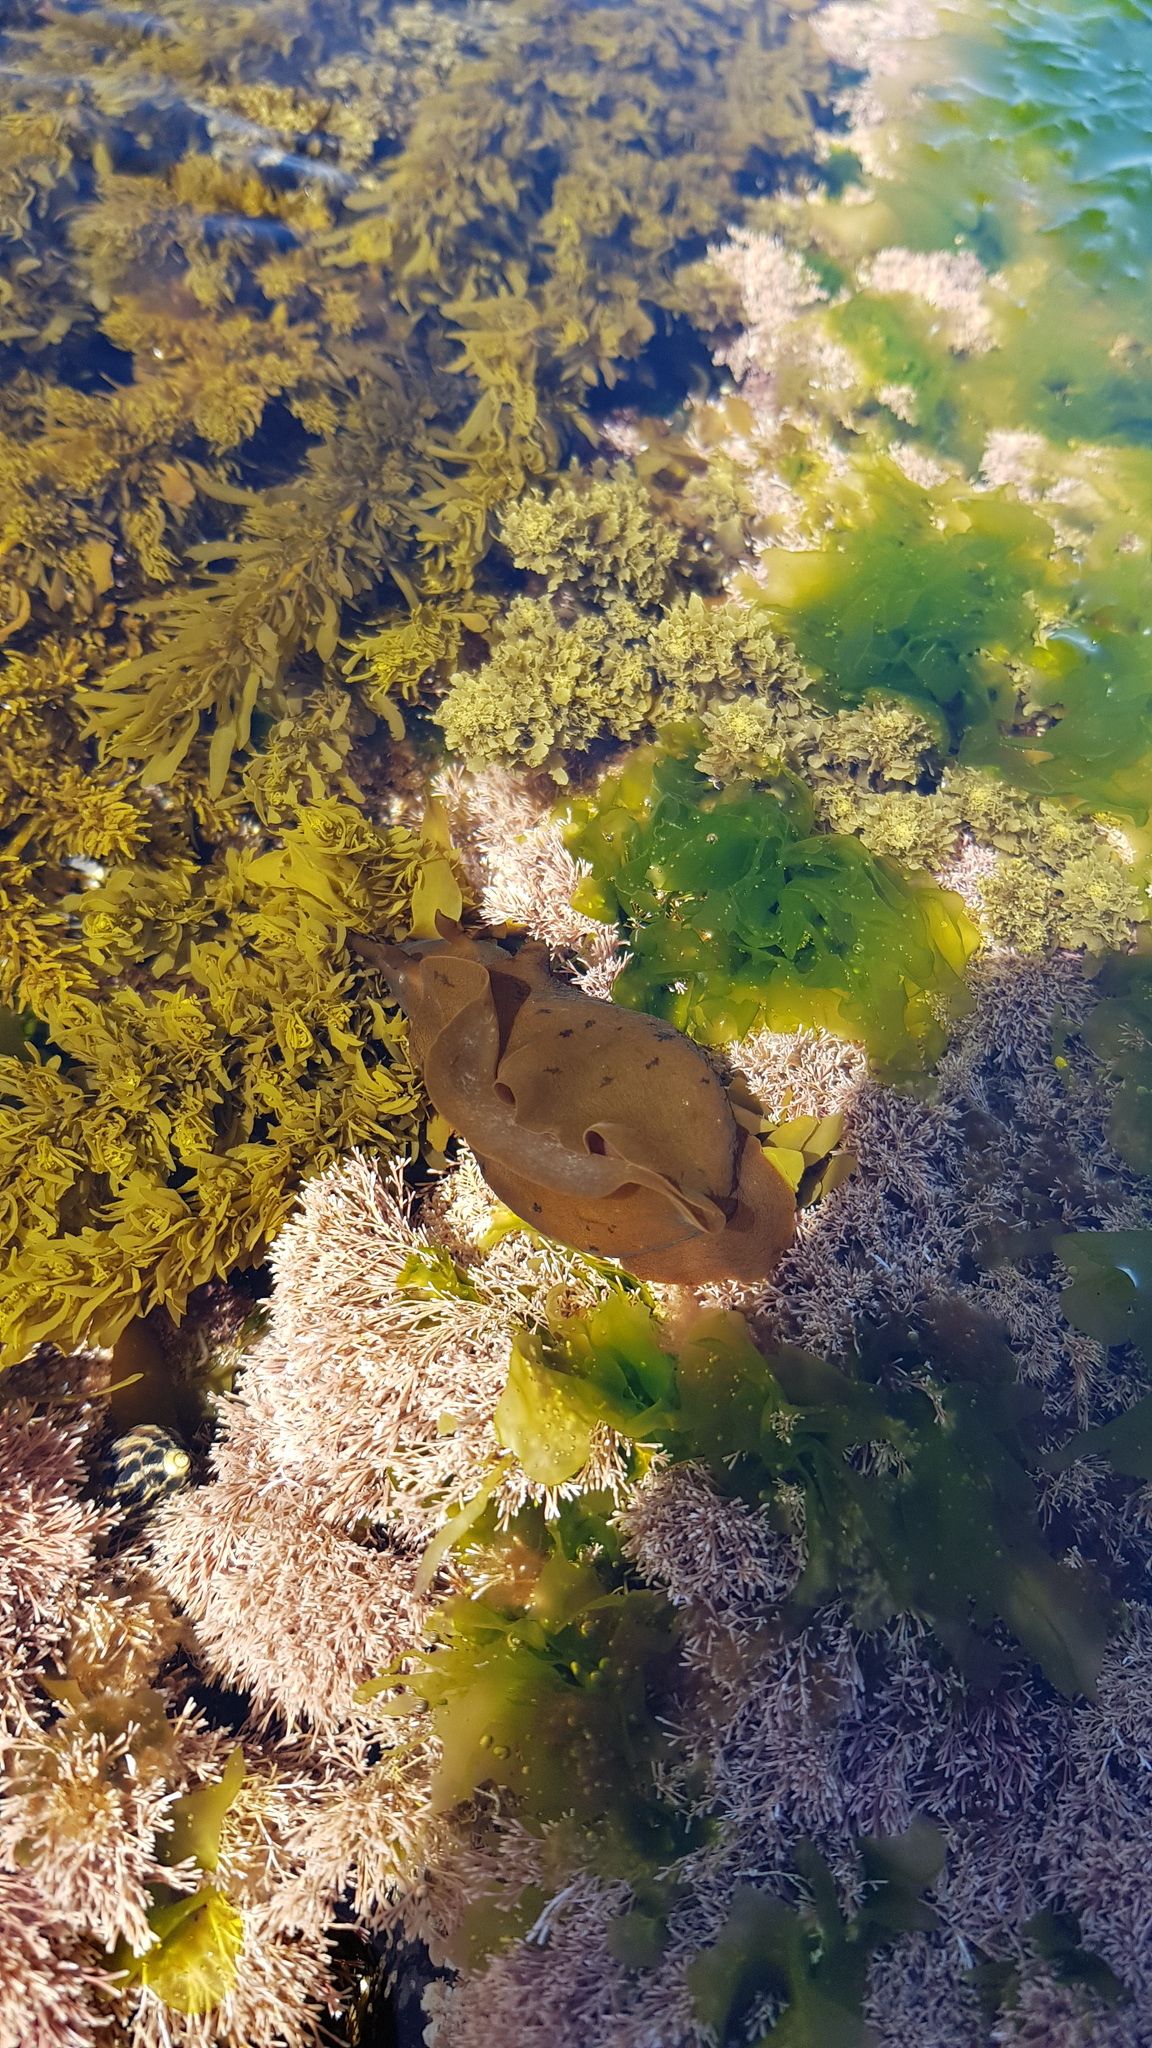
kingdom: Animalia
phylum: Mollusca
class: Gastropoda
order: Aplysiida
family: Aplysiidae
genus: Aplysia
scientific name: Aplysia juliana
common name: Walking sea hare
